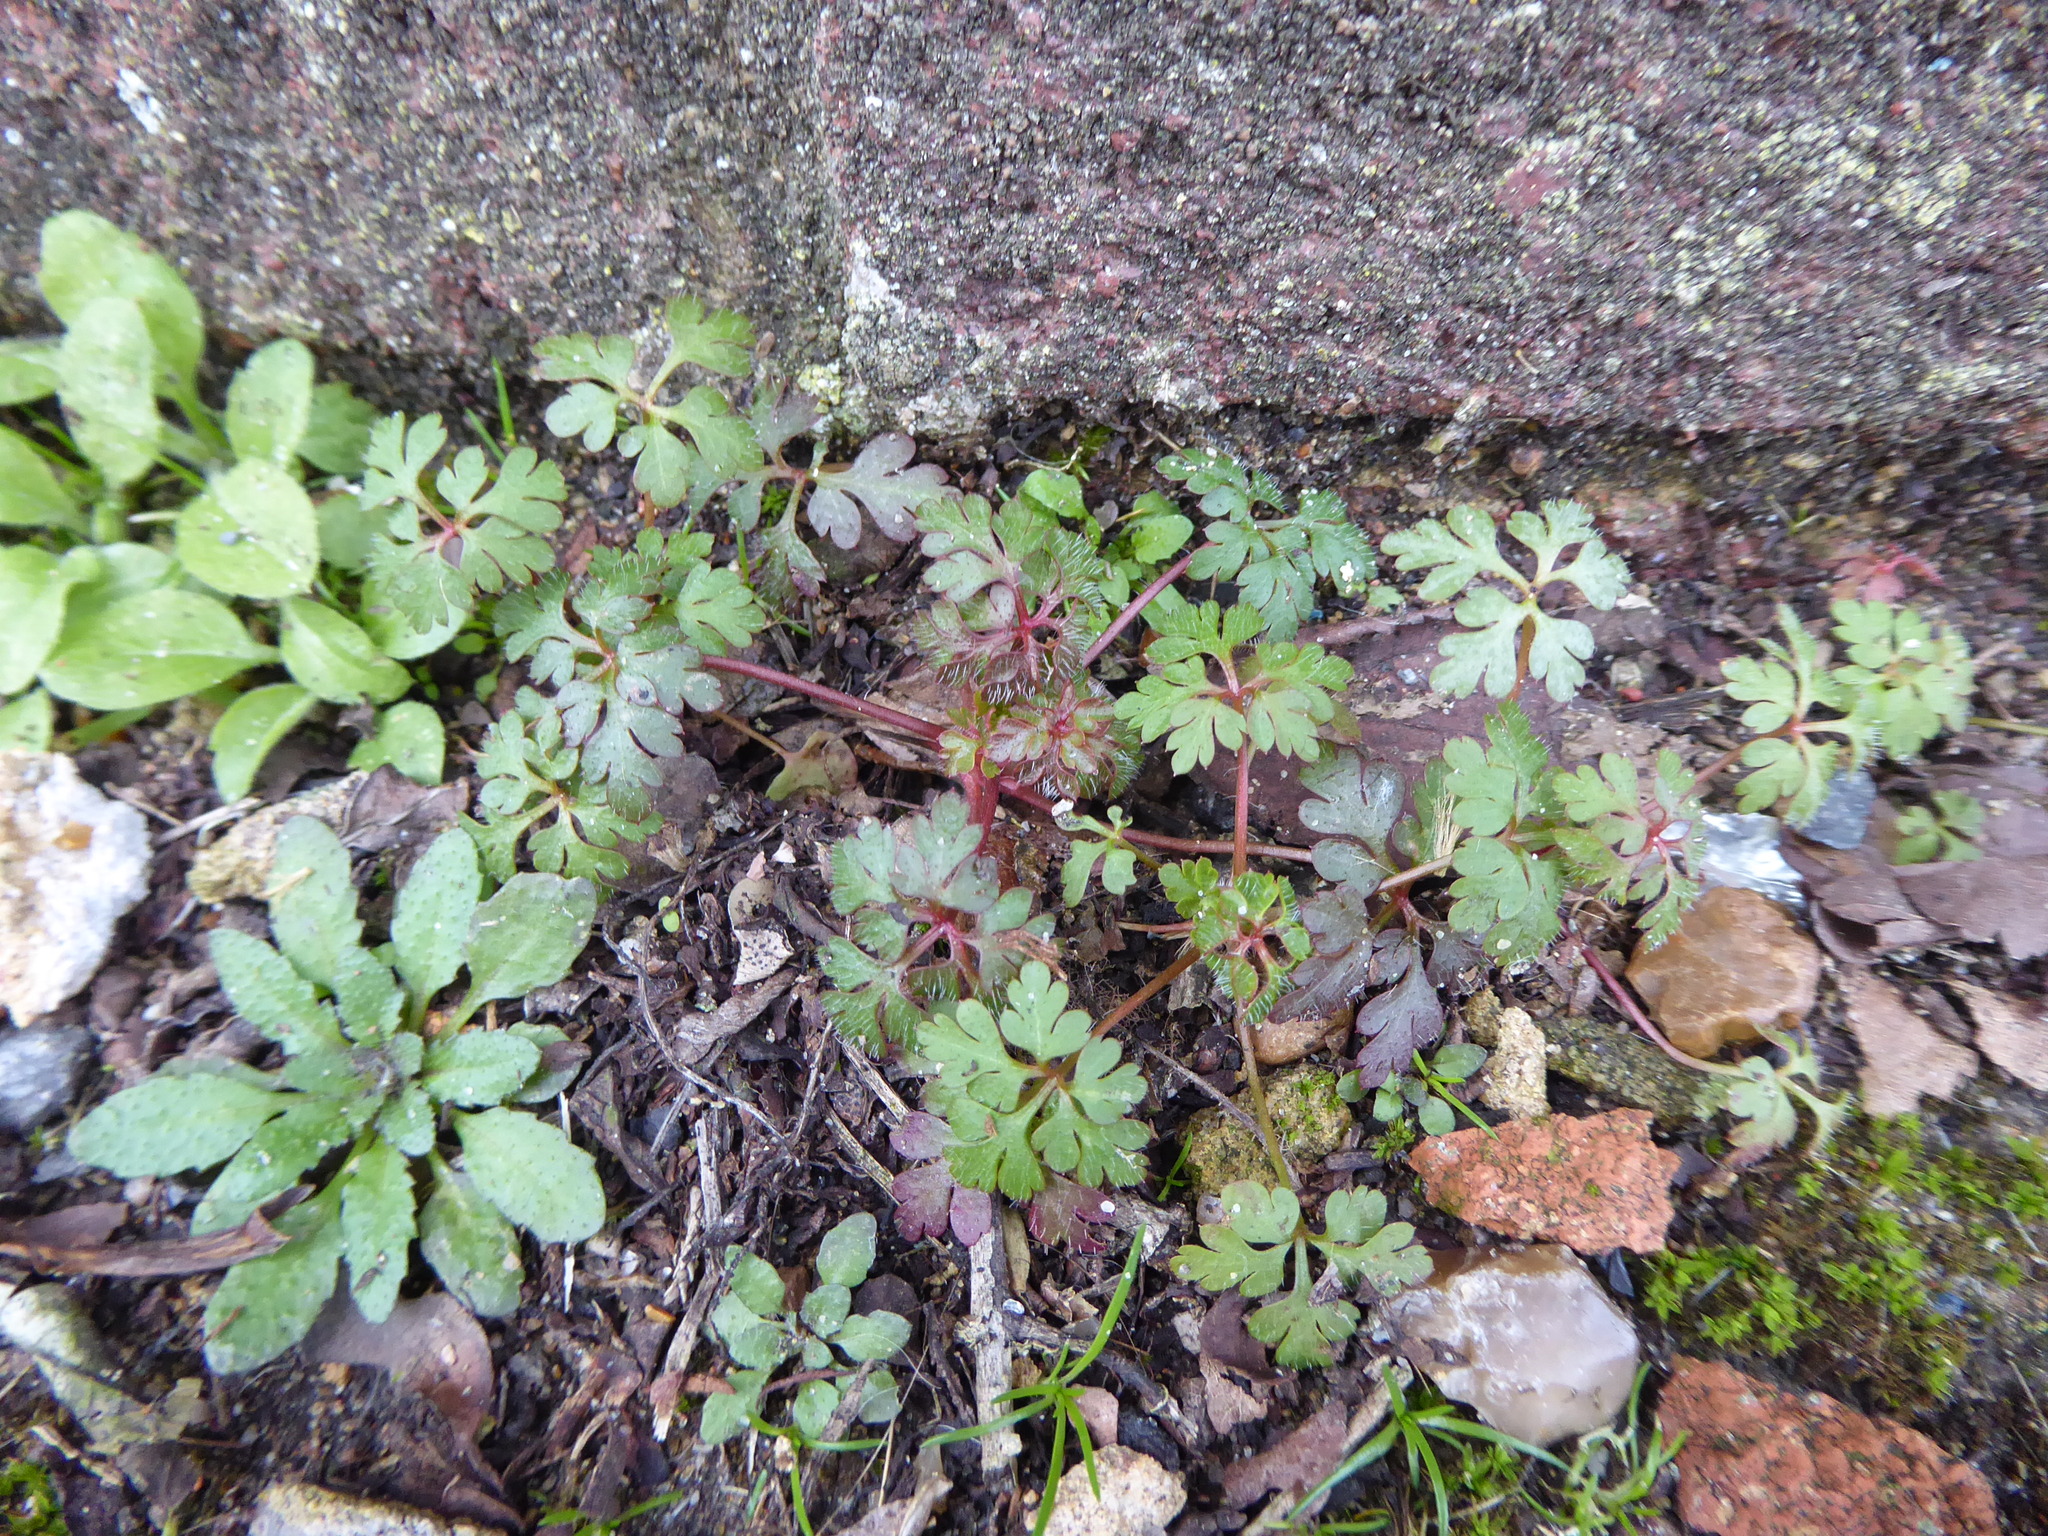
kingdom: Plantae
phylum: Tracheophyta
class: Magnoliopsida
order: Geraniales
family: Geraniaceae
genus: Geranium
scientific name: Geranium robertianum
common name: Herb-robert
